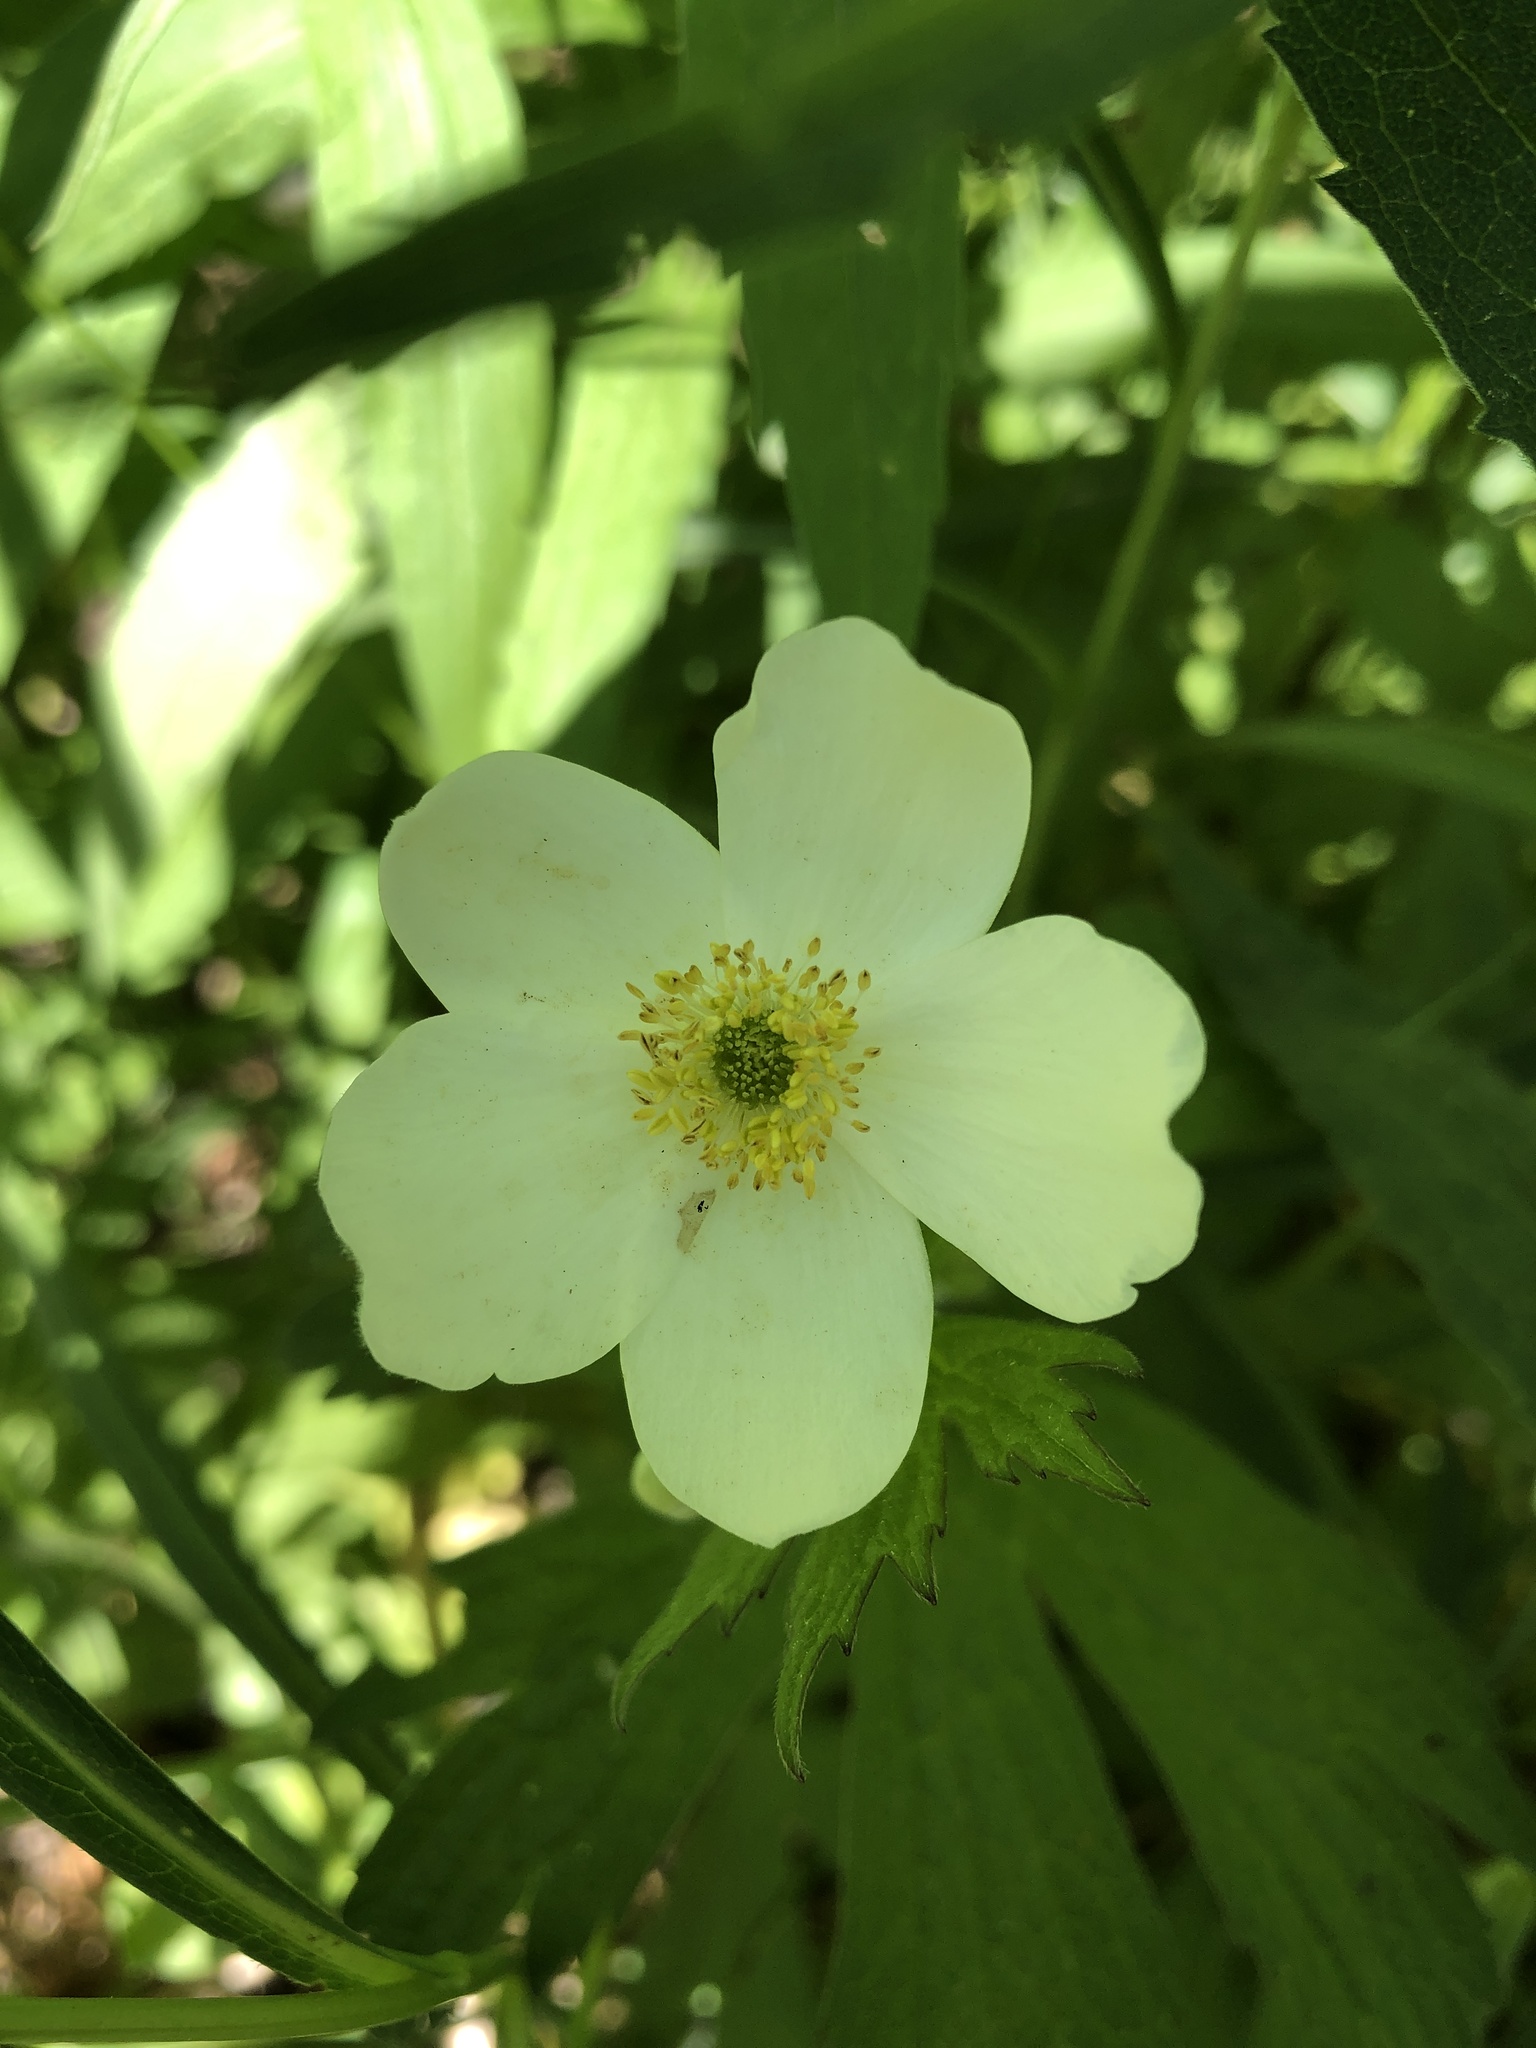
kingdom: Plantae
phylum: Tracheophyta
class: Magnoliopsida
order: Ranunculales
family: Ranunculaceae
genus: Anemonastrum
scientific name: Anemonastrum canadense
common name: Canada anemone
